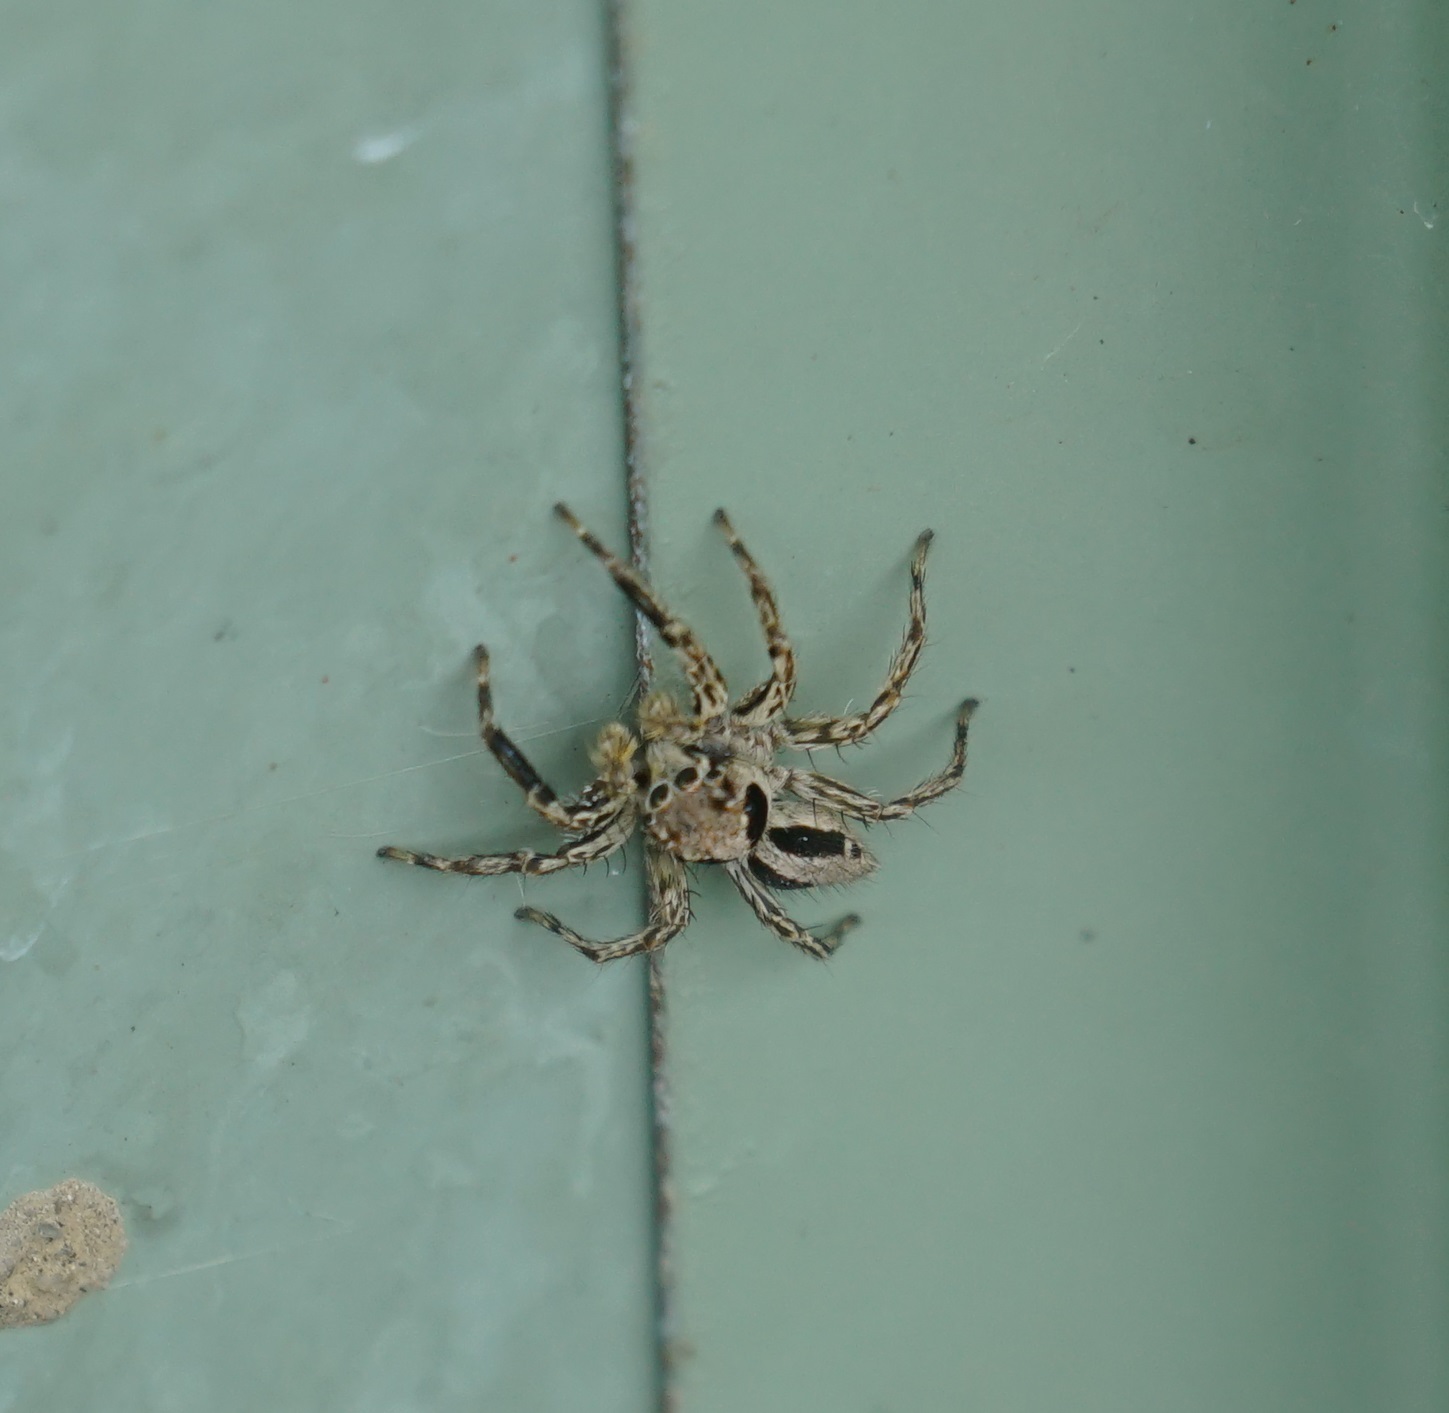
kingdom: Animalia
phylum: Arthropoda
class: Arachnida
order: Araneae
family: Salticidae
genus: Plexippus
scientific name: Plexippus petersi
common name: Jumping spider
